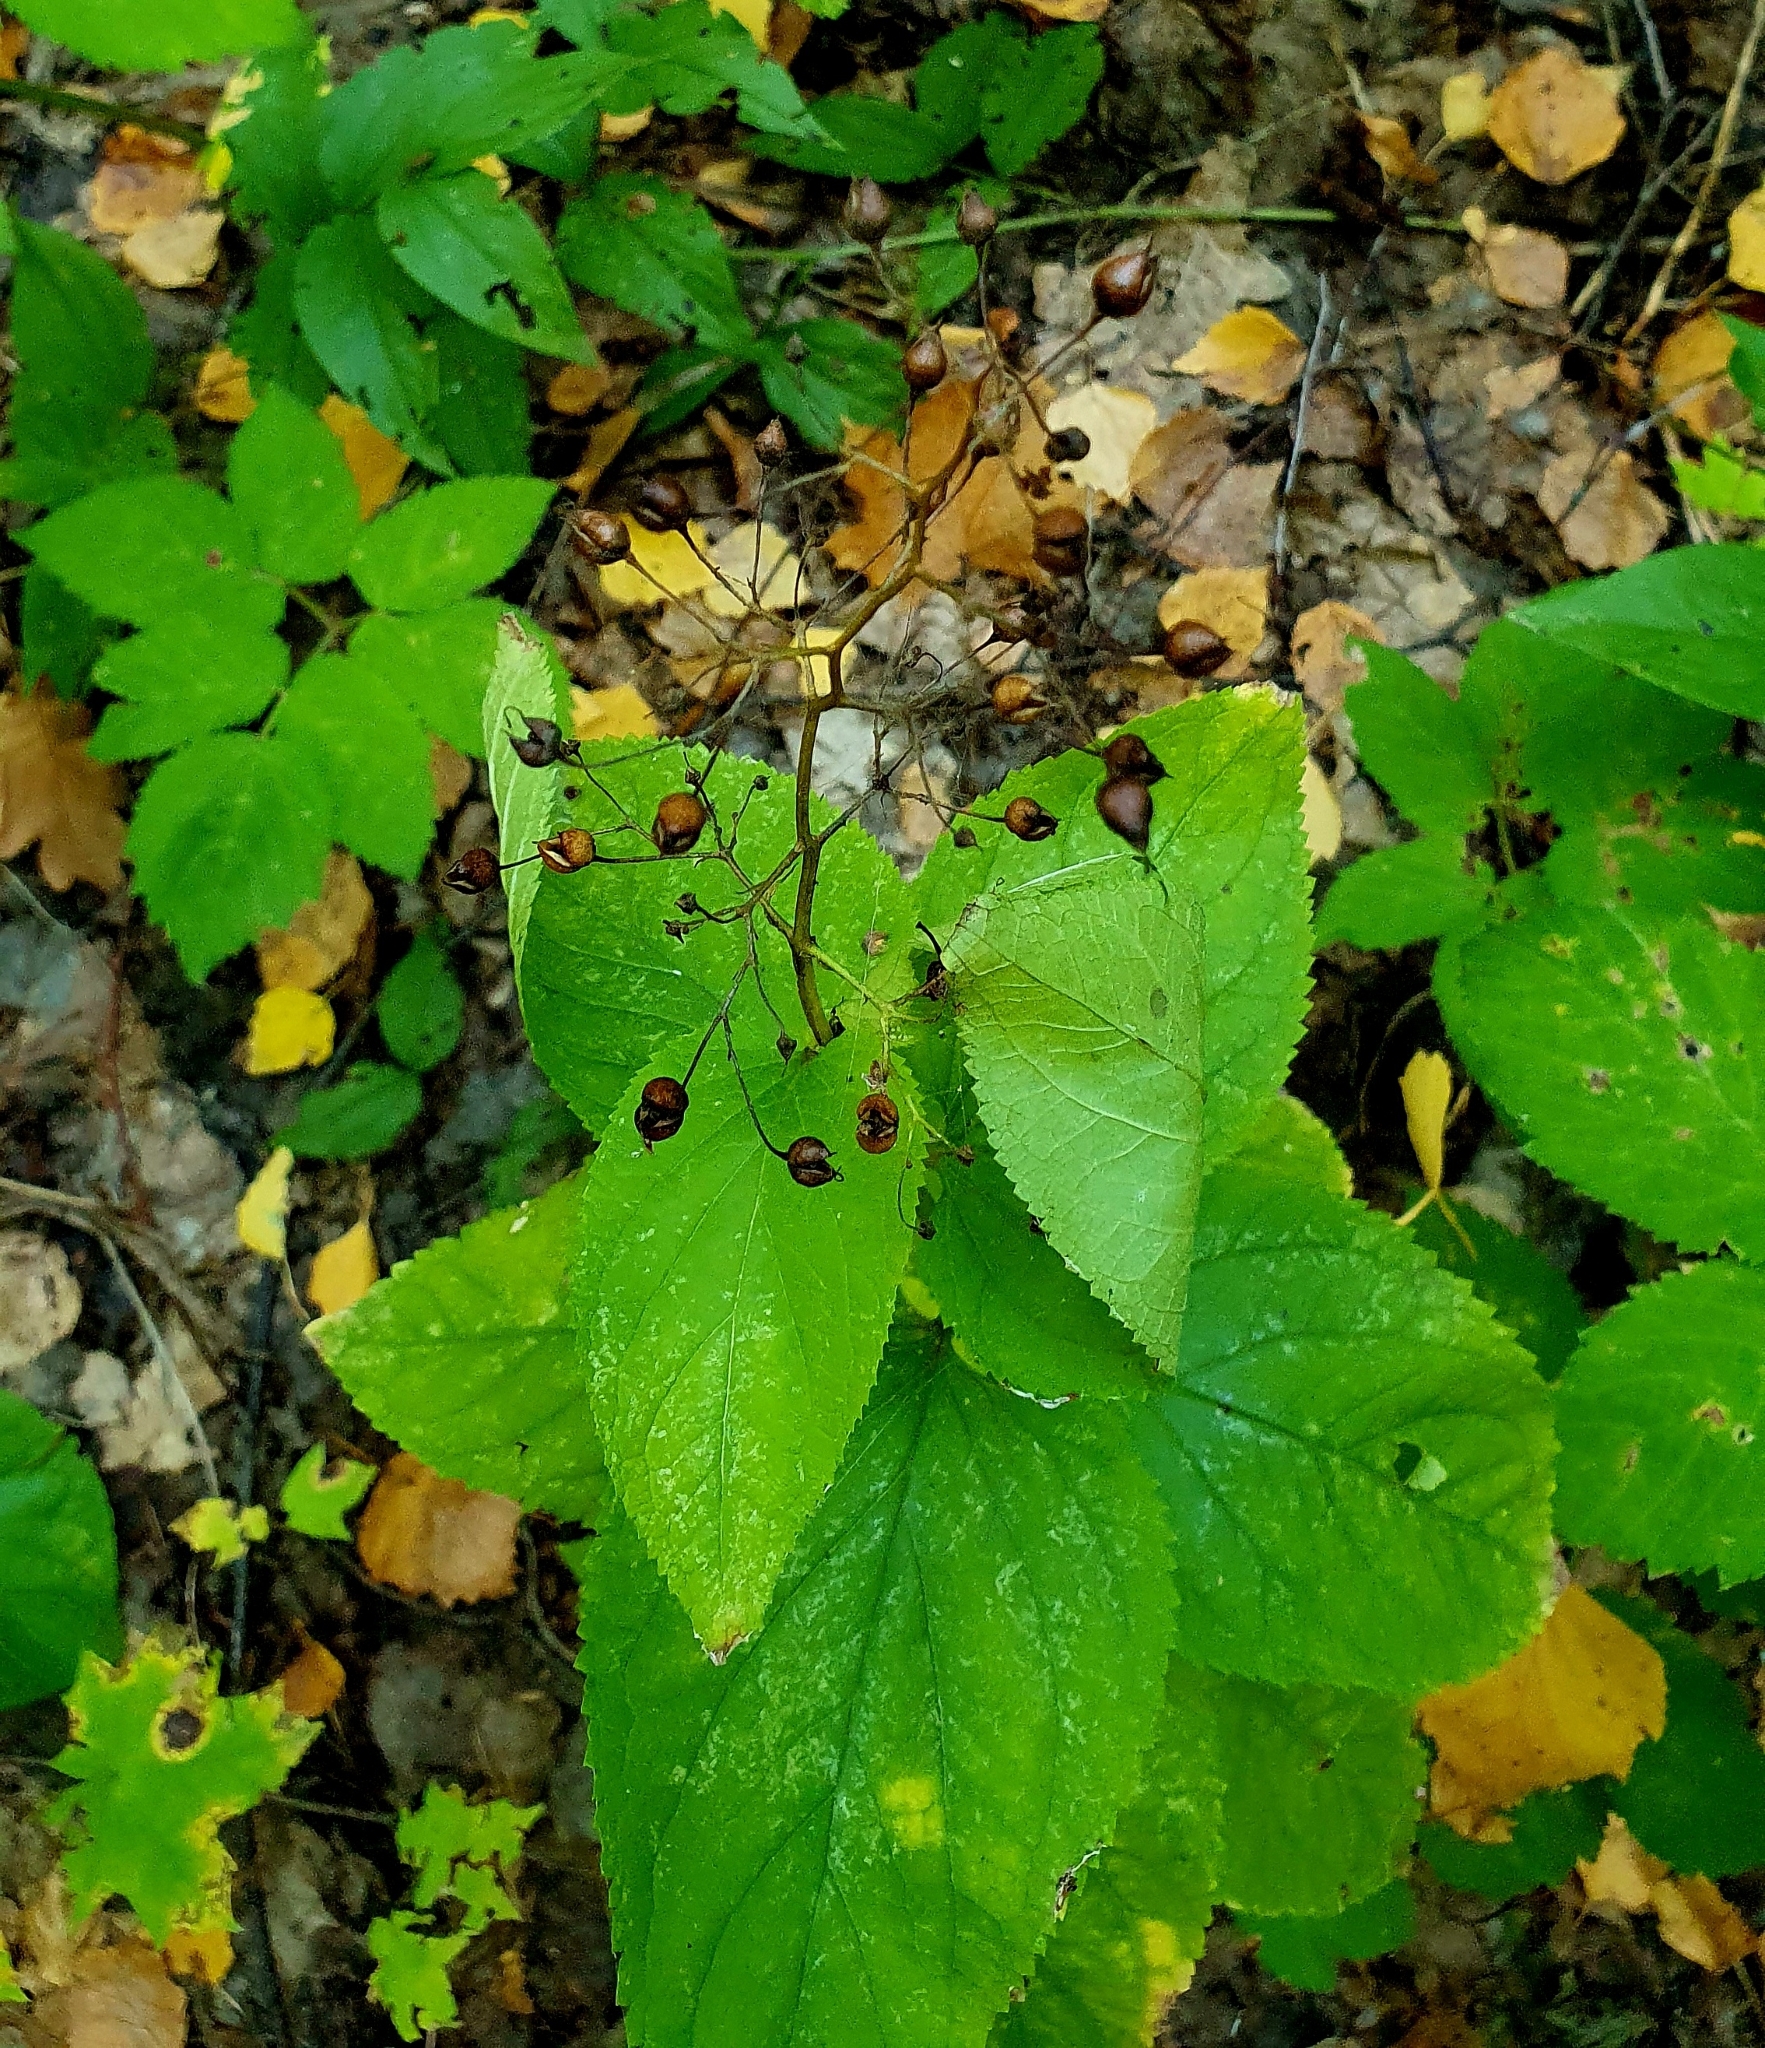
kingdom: Plantae
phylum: Tracheophyta
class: Magnoliopsida
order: Lamiales
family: Scrophulariaceae
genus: Scrophularia
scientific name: Scrophularia nodosa
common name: Common figwort
